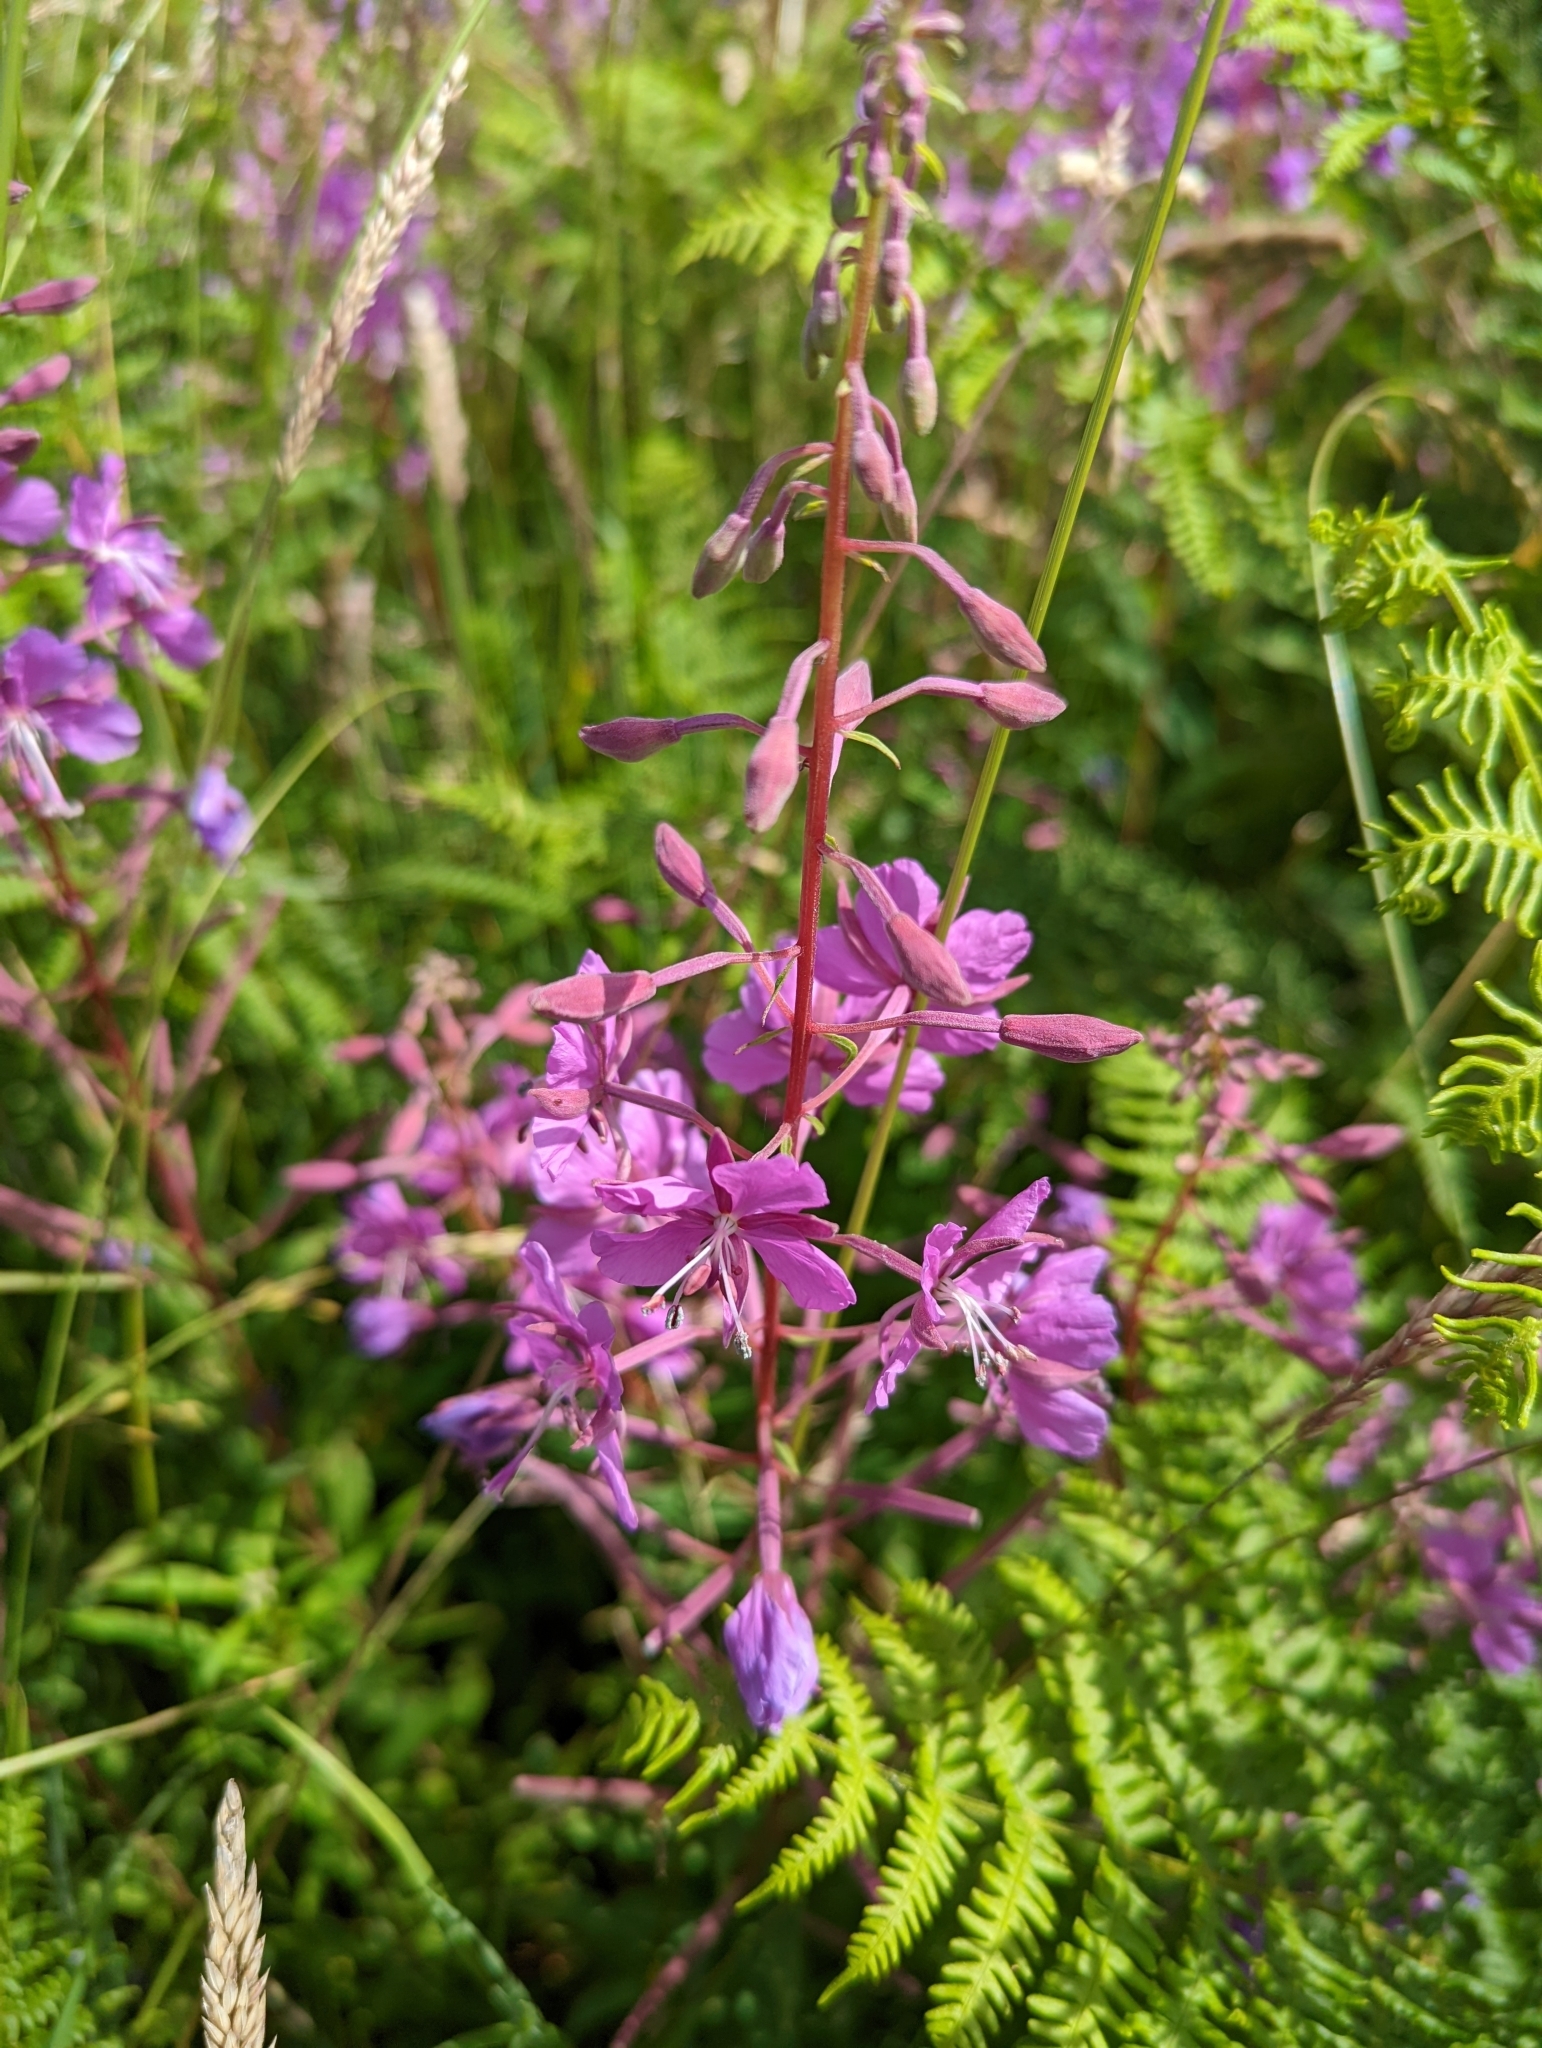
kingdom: Plantae
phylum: Tracheophyta
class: Magnoliopsida
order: Myrtales
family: Onagraceae
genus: Chamaenerion
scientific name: Chamaenerion angustifolium
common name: Fireweed
